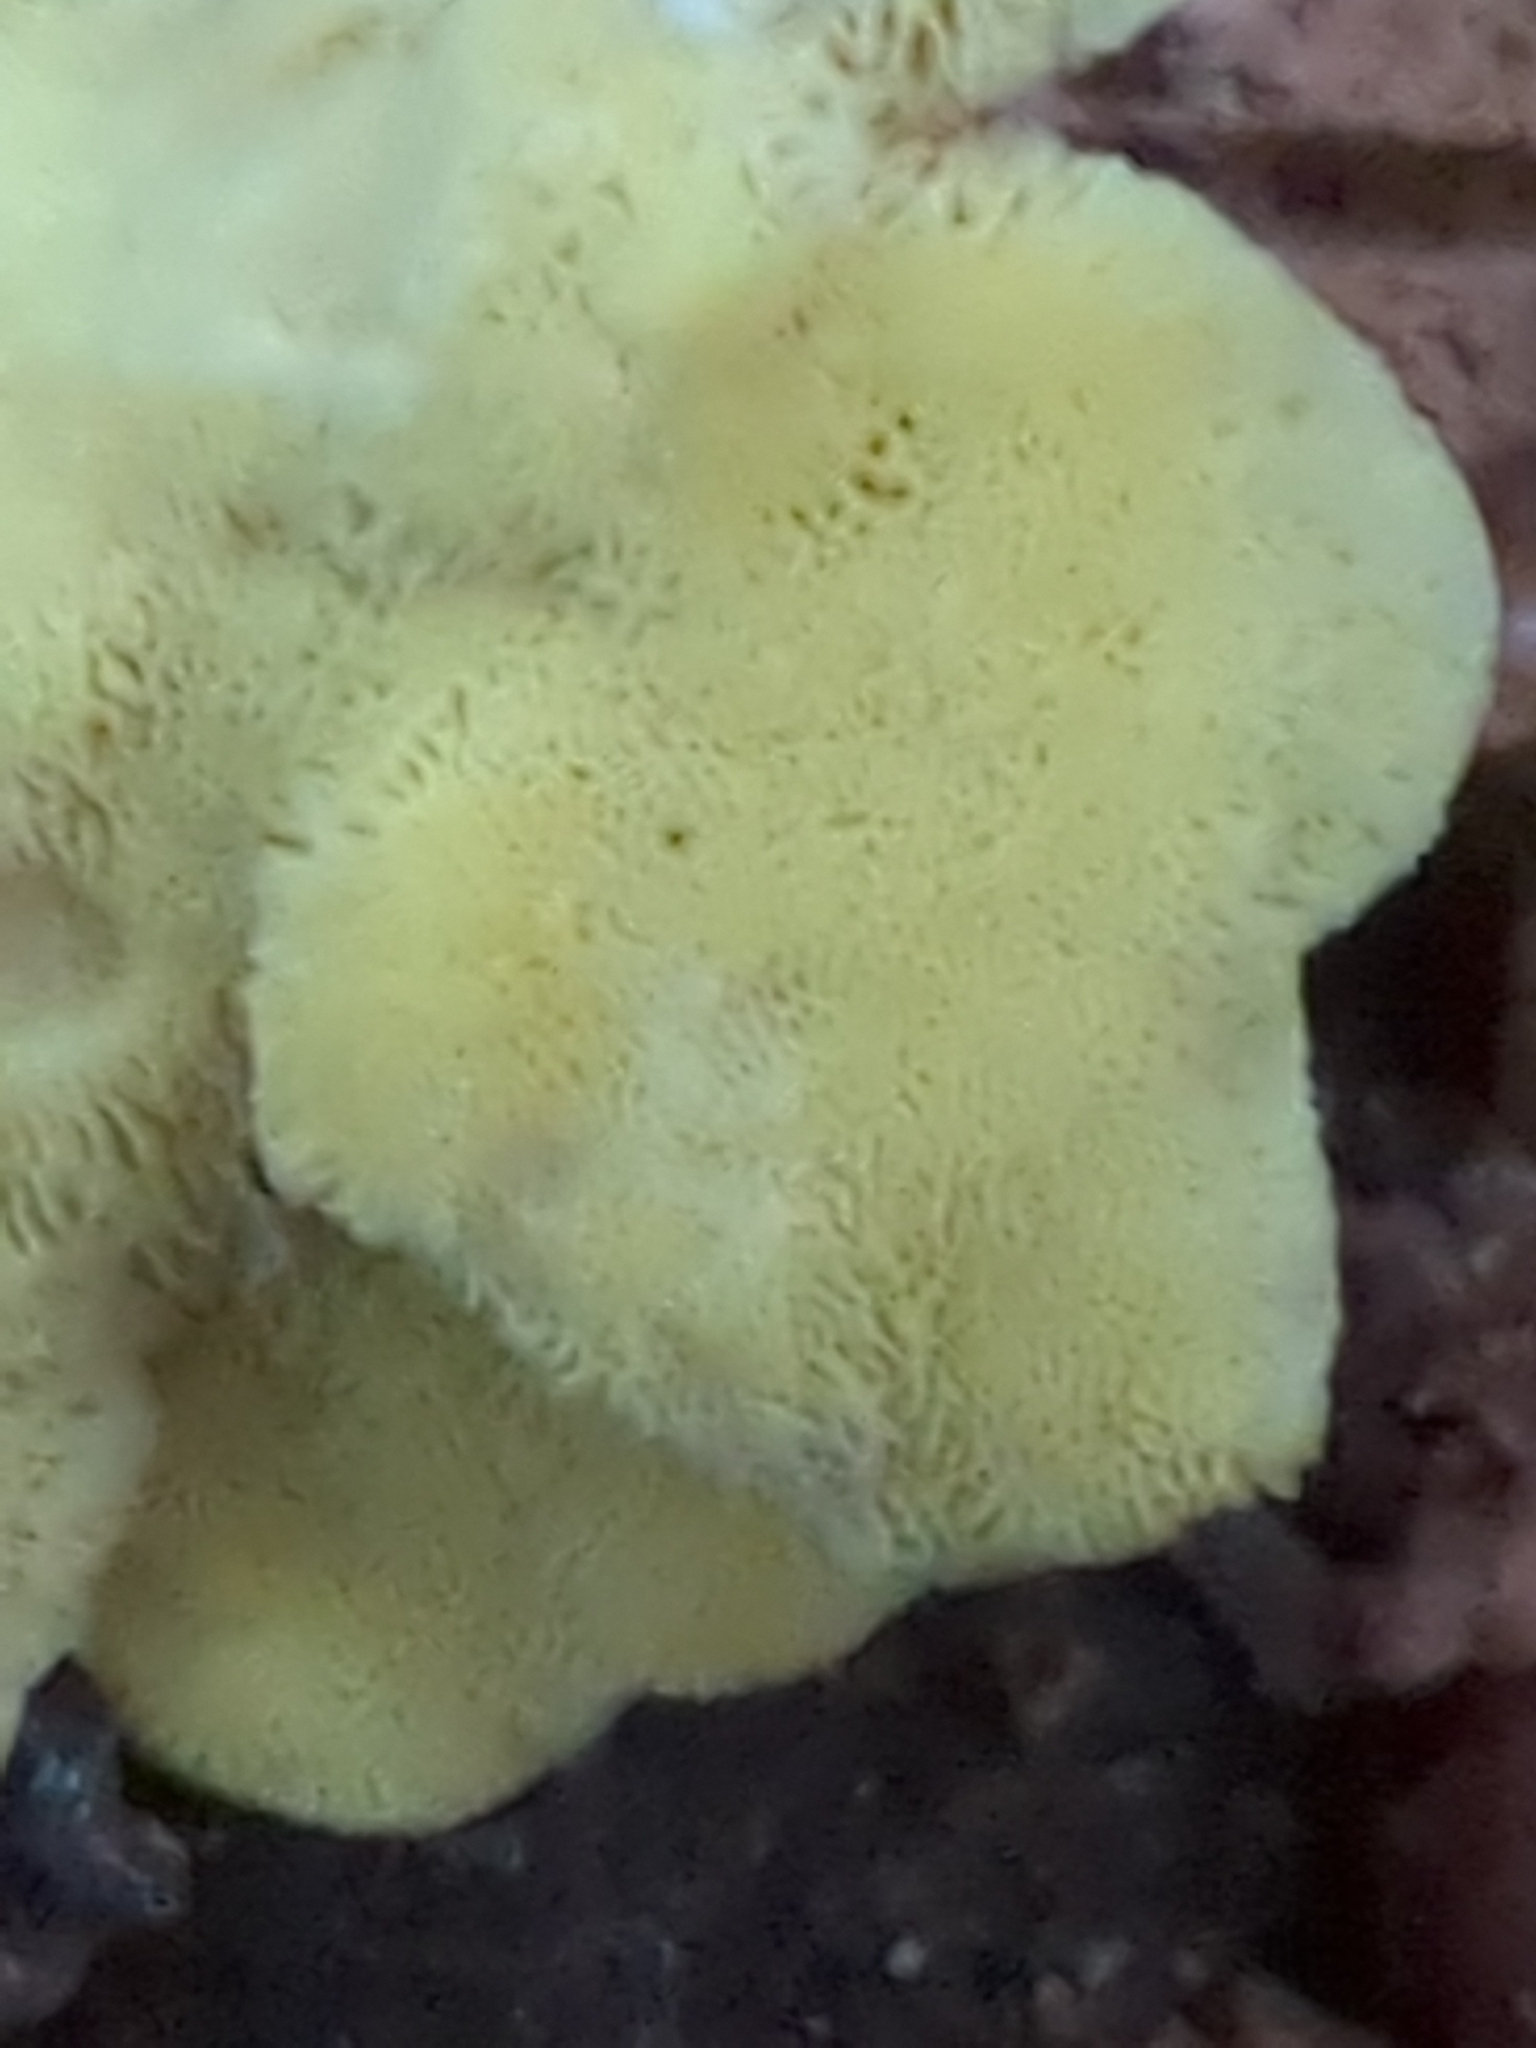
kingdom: Fungi
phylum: Basidiomycota
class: Agaricomycetes
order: Polyporales
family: Laetiporaceae
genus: Laetiporus
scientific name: Laetiporus sulphureus
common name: Chicken of the woods
